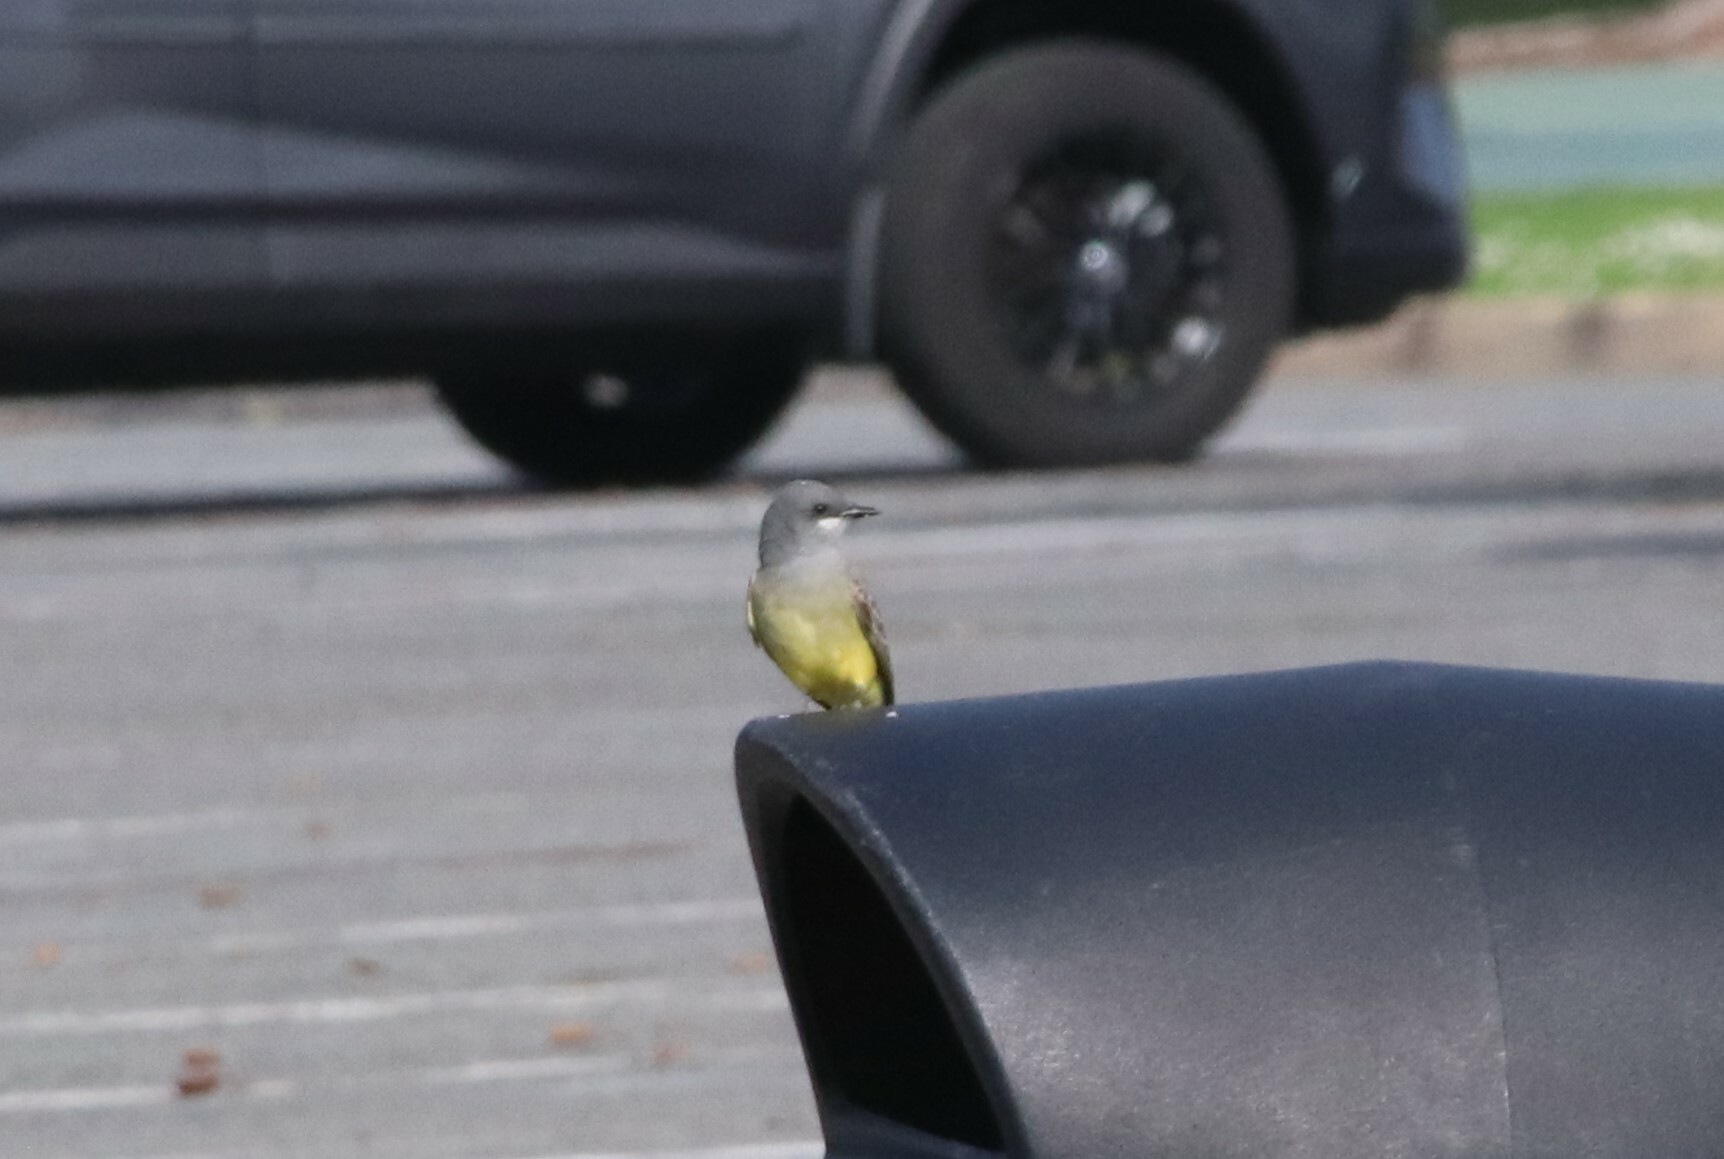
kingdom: Animalia
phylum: Chordata
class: Aves
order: Passeriformes
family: Tyrannidae
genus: Tyrannus
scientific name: Tyrannus vociferans
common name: Cassin's kingbird
